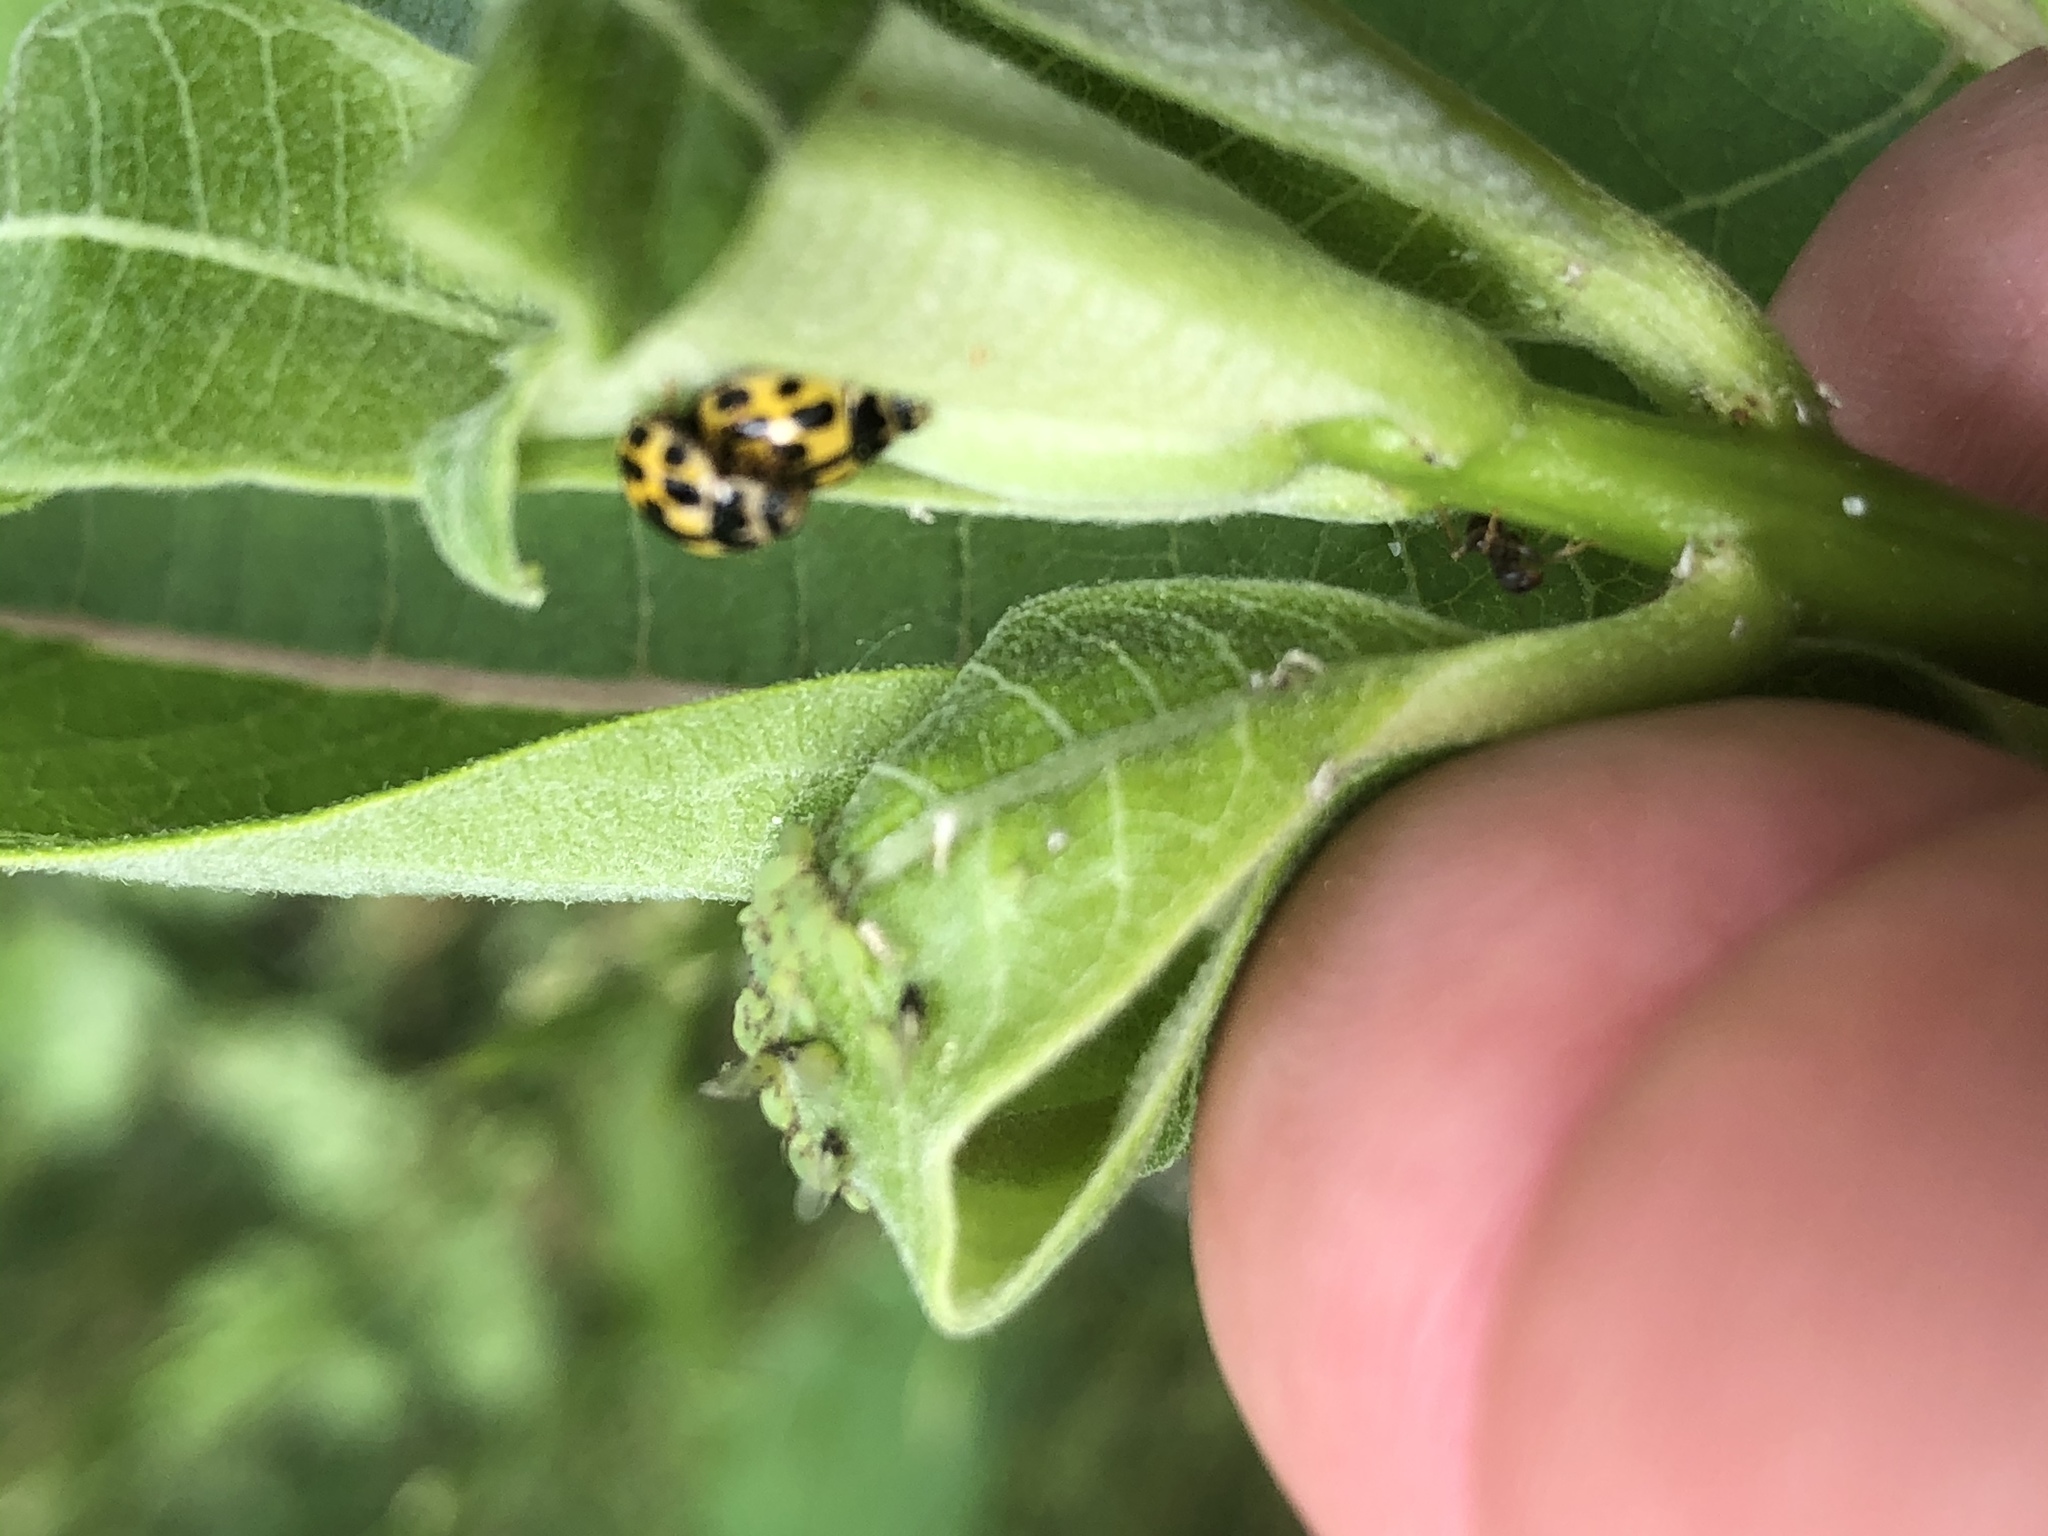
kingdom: Animalia
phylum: Arthropoda
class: Insecta
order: Coleoptera
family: Coccinellidae
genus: Propylaea
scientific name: Propylaea quatuordecimpunctata
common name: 14-spotted ladybird beetle
